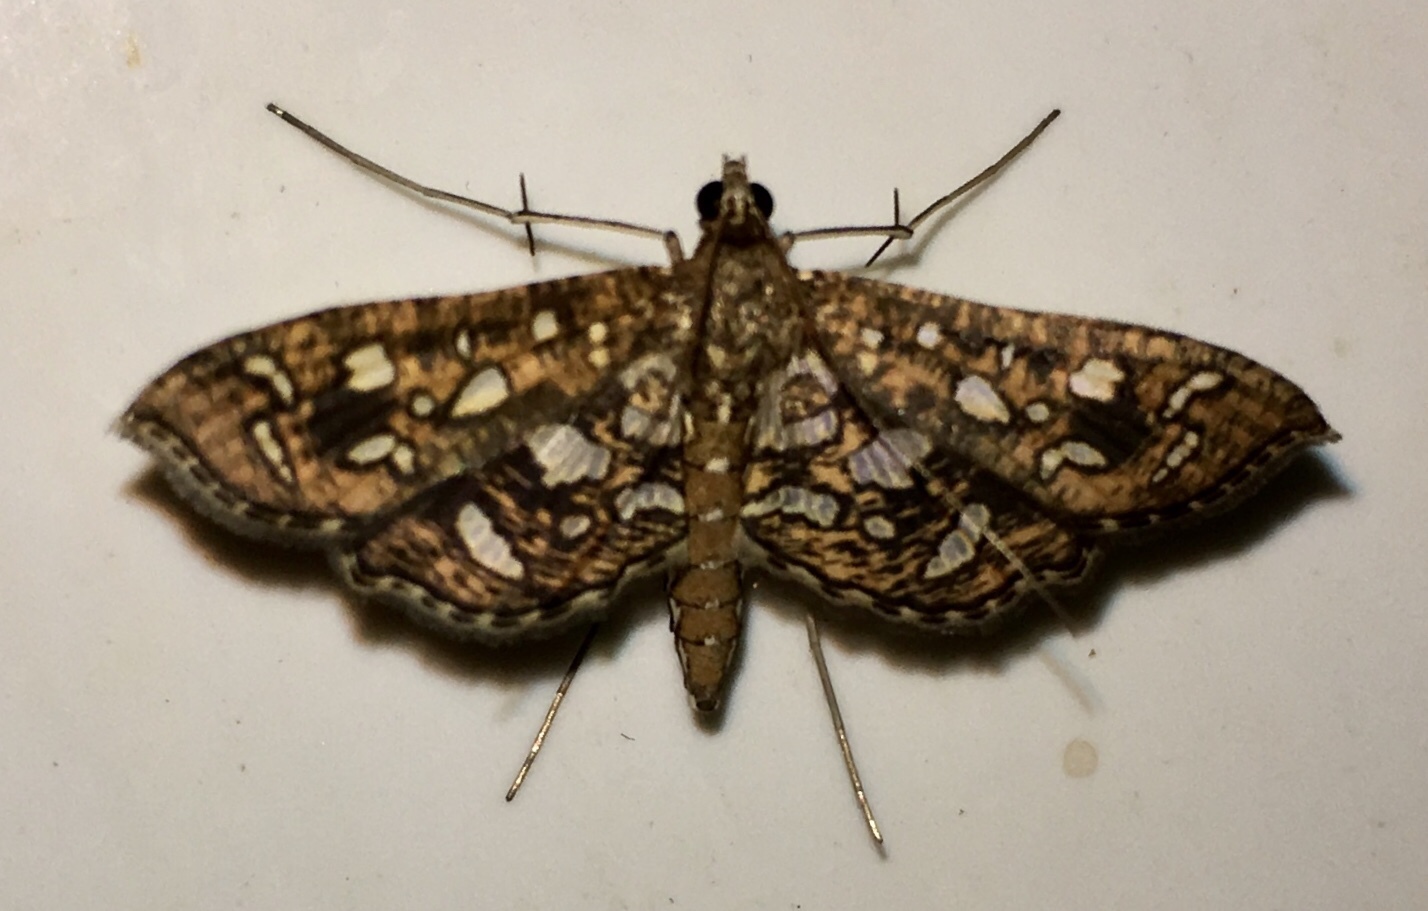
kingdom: Animalia
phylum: Arthropoda
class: Insecta
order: Lepidoptera
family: Crambidae
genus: Nausinoe
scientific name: Nausinoe geometralis
